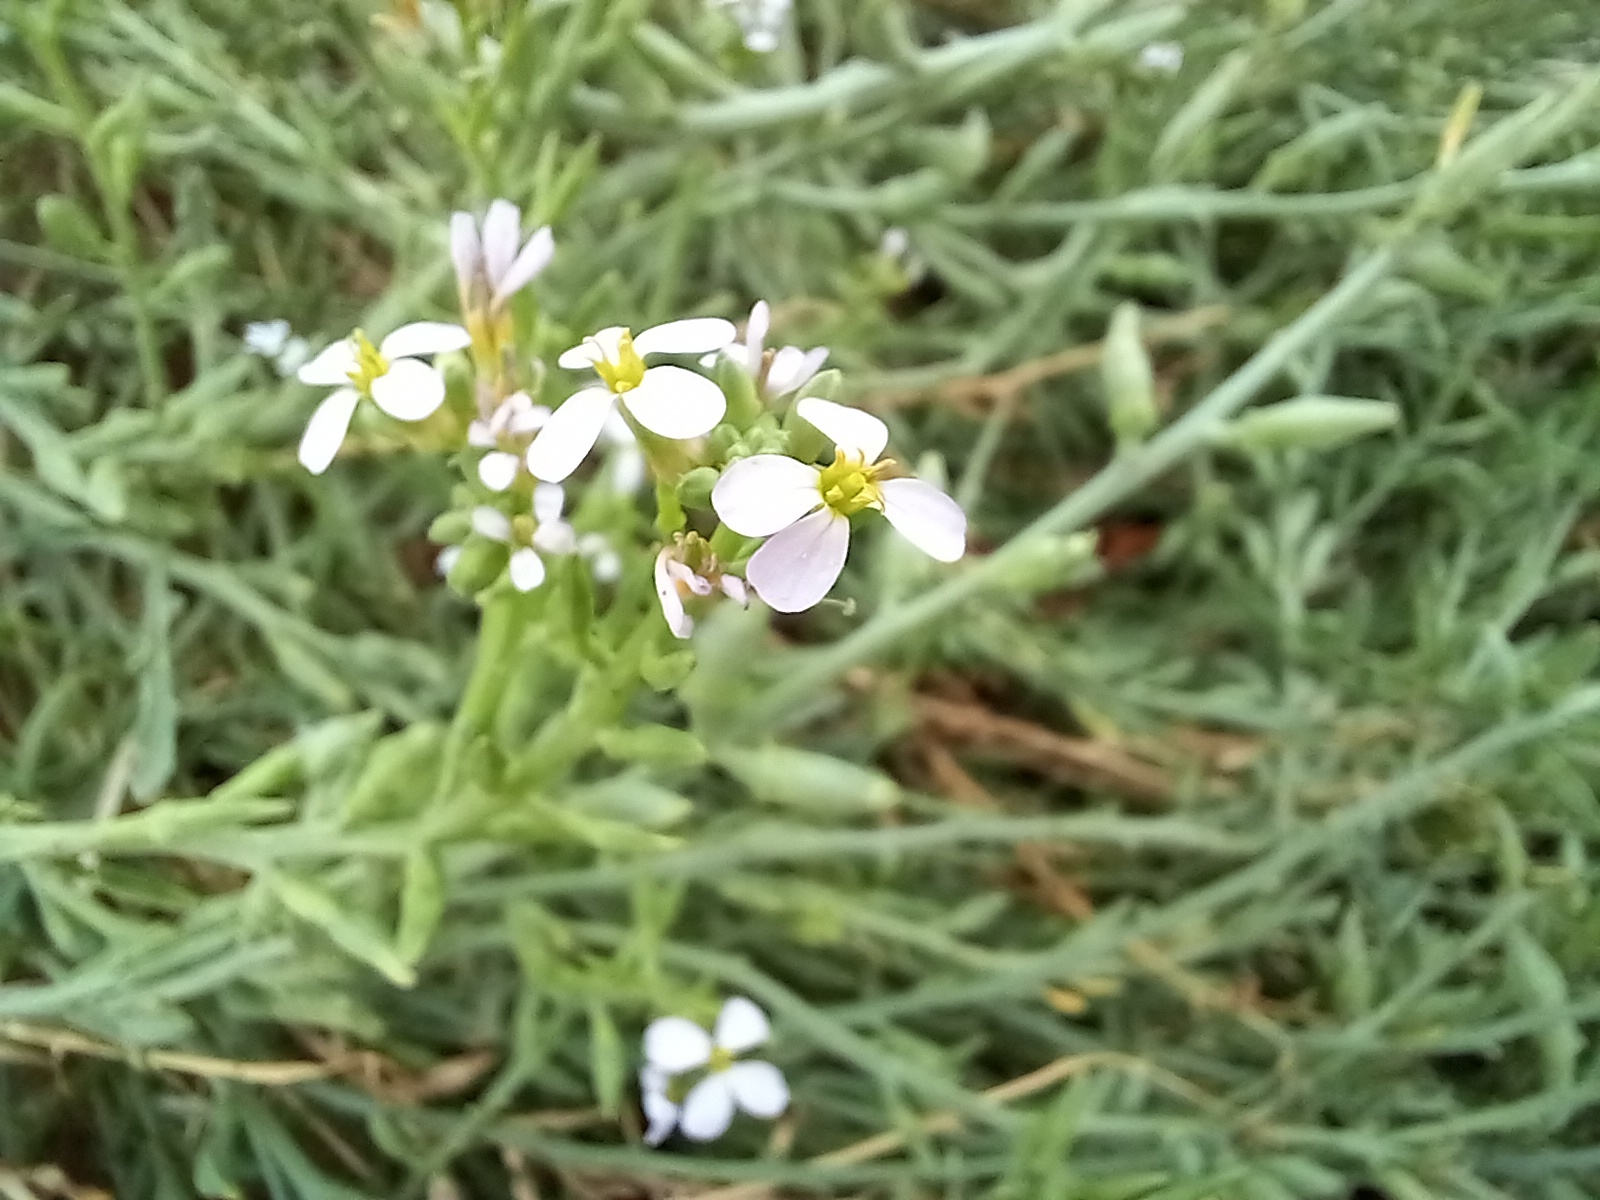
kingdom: Plantae
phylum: Tracheophyta
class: Magnoliopsida
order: Brassicales
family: Brassicaceae
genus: Cakile
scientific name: Cakile maritima
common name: Sea rocket
